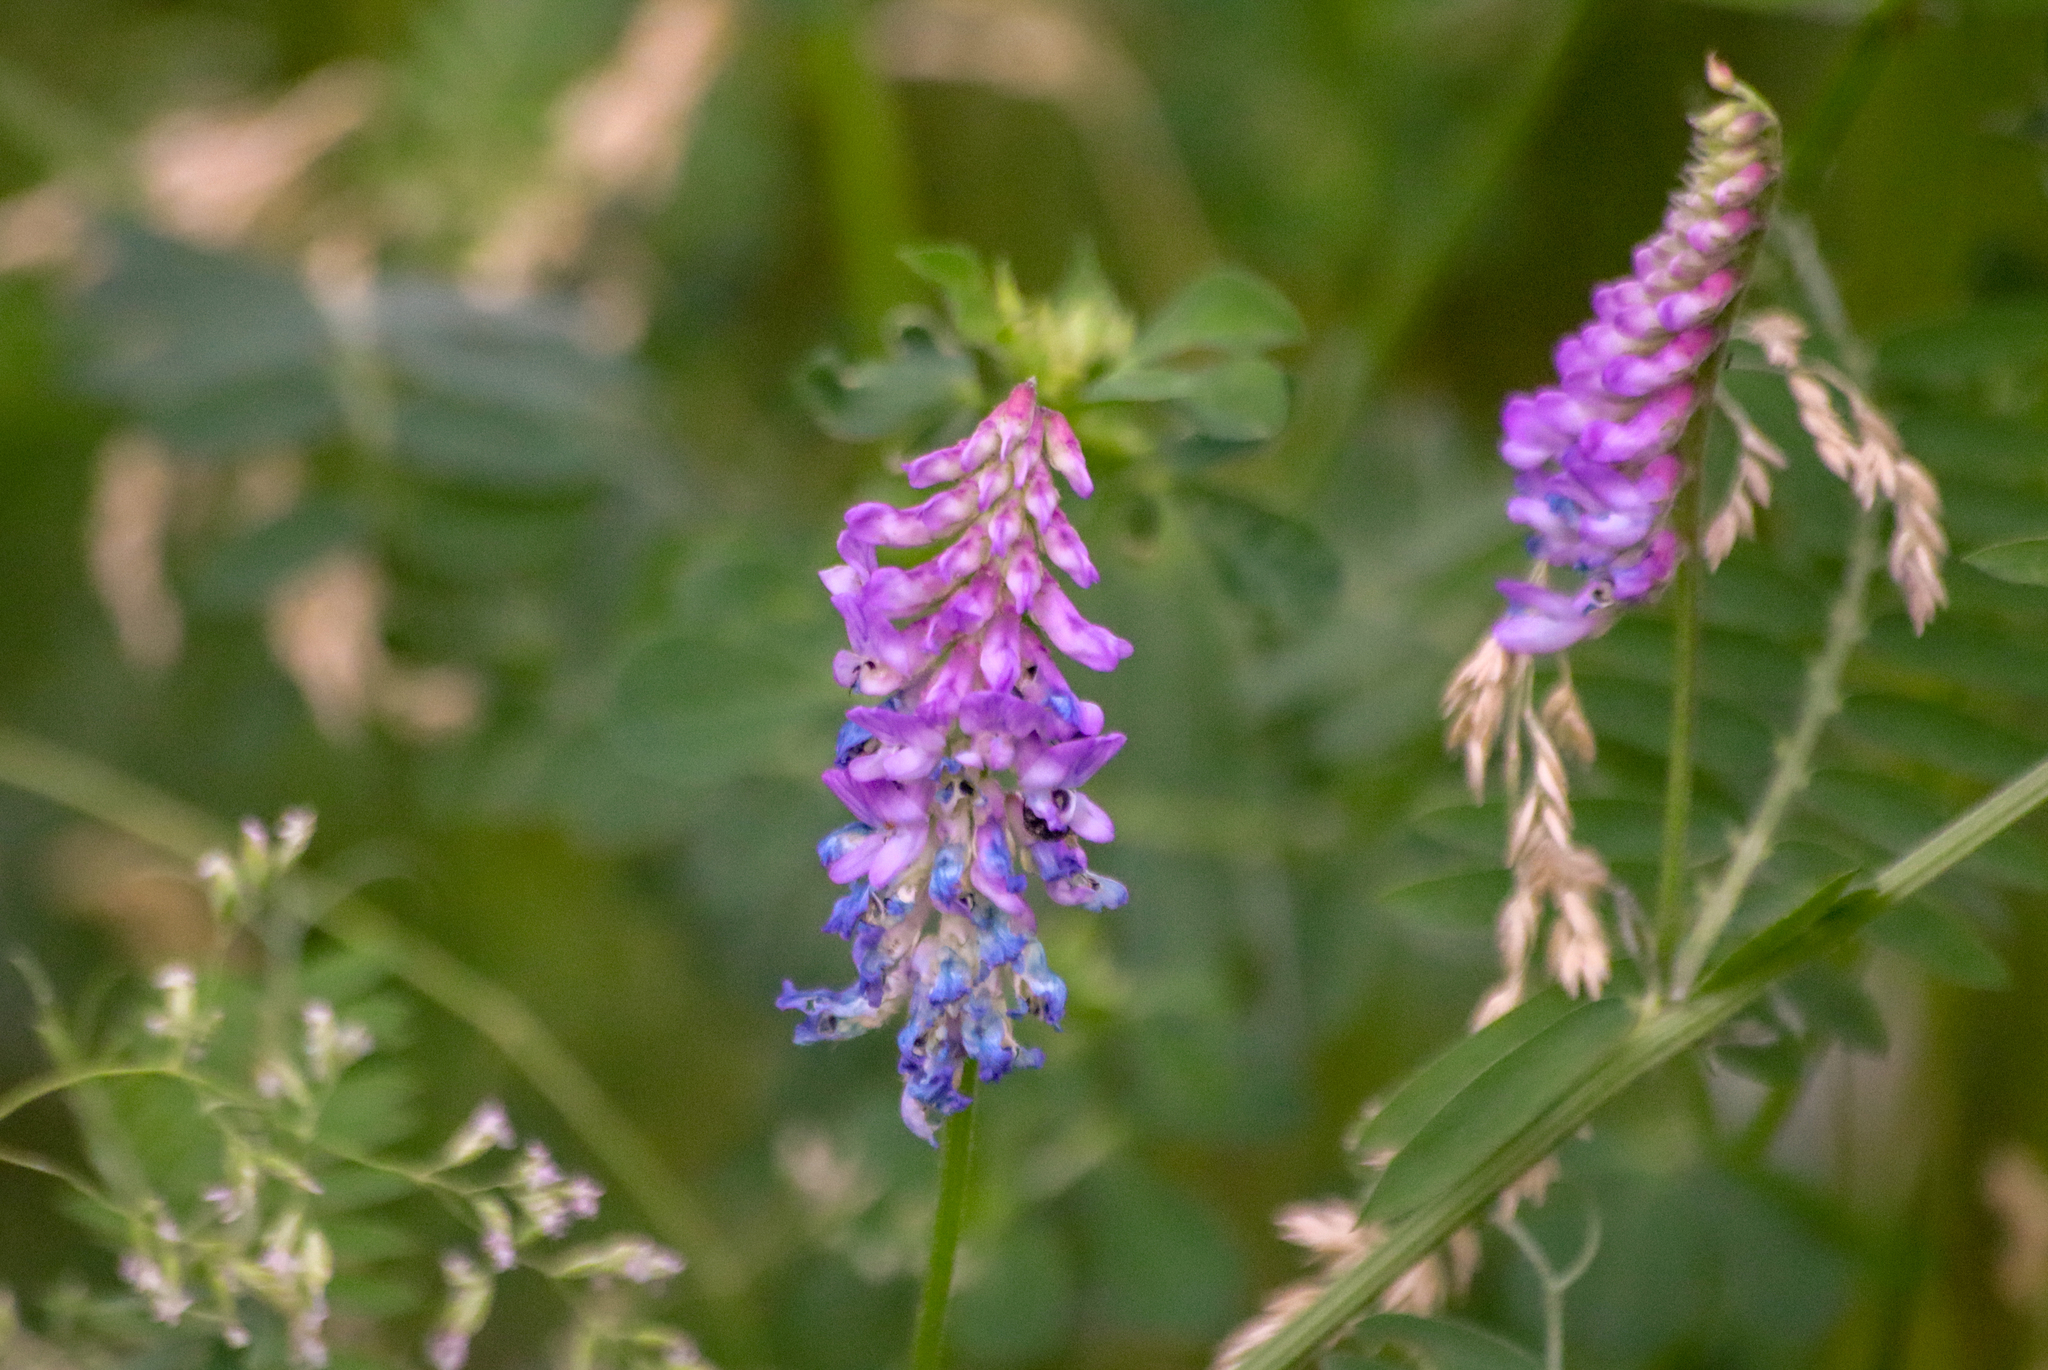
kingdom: Plantae
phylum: Tracheophyta
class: Magnoliopsida
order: Fabales
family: Fabaceae
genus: Vicia
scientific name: Vicia cracca
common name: Bird vetch
